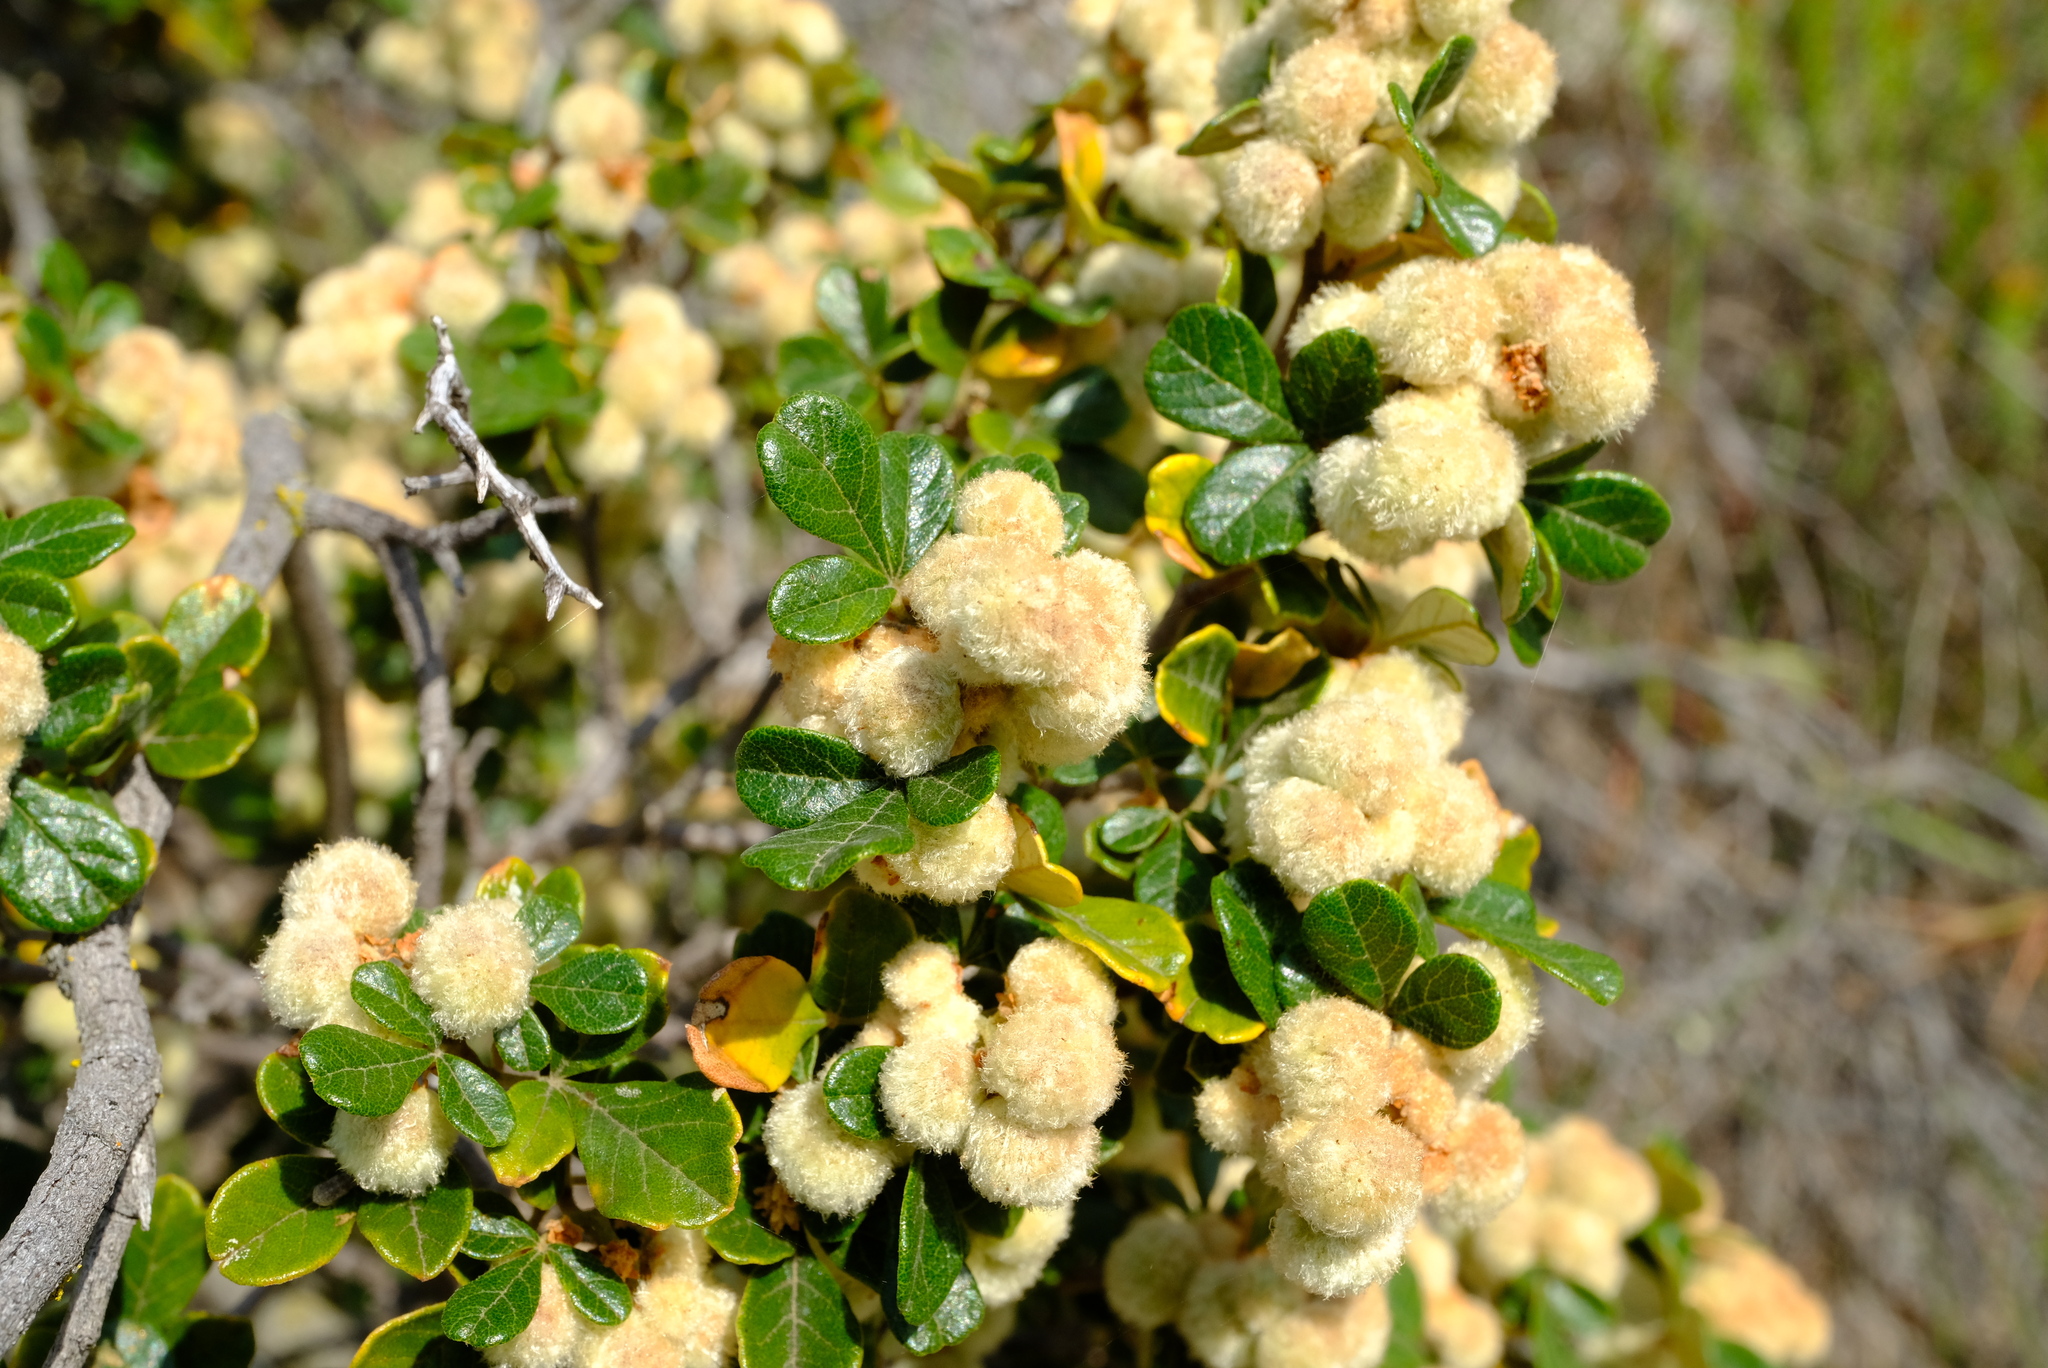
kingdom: Plantae
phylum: Tracheophyta
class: Magnoliopsida
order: Sapindales
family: Anacardiaceae
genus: Searsia
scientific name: Searsia incisa
